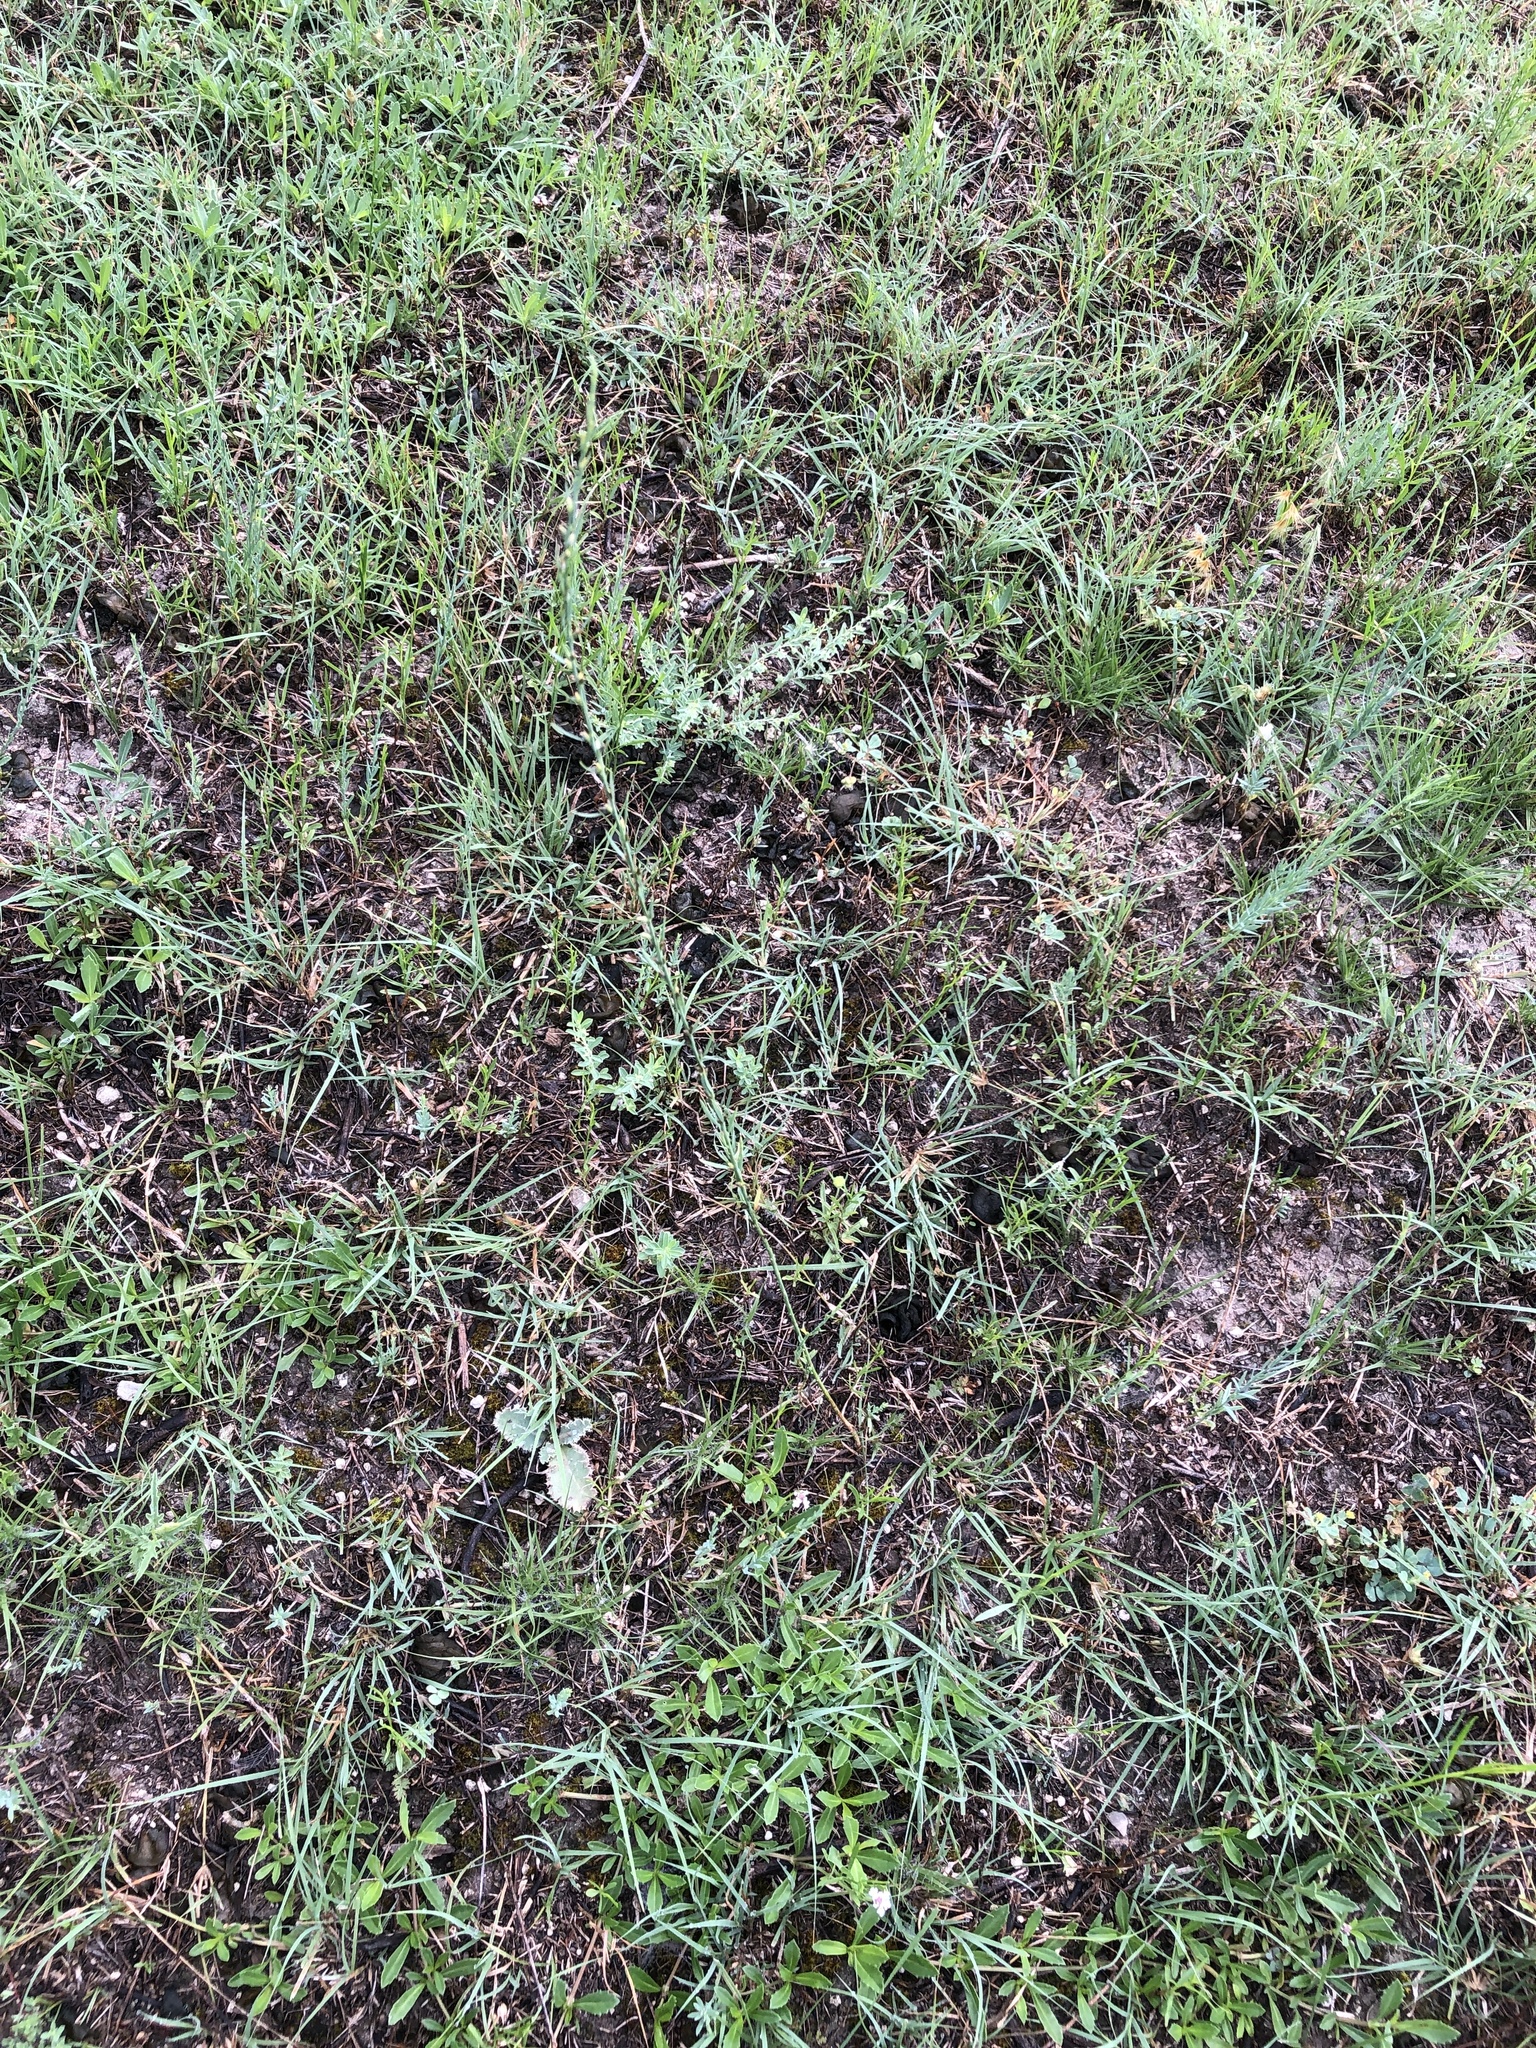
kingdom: Plantae
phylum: Tracheophyta
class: Magnoliopsida
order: Malvales
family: Thymelaeaceae
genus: Thymelaea
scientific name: Thymelaea passerina
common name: Annual thymelaea
